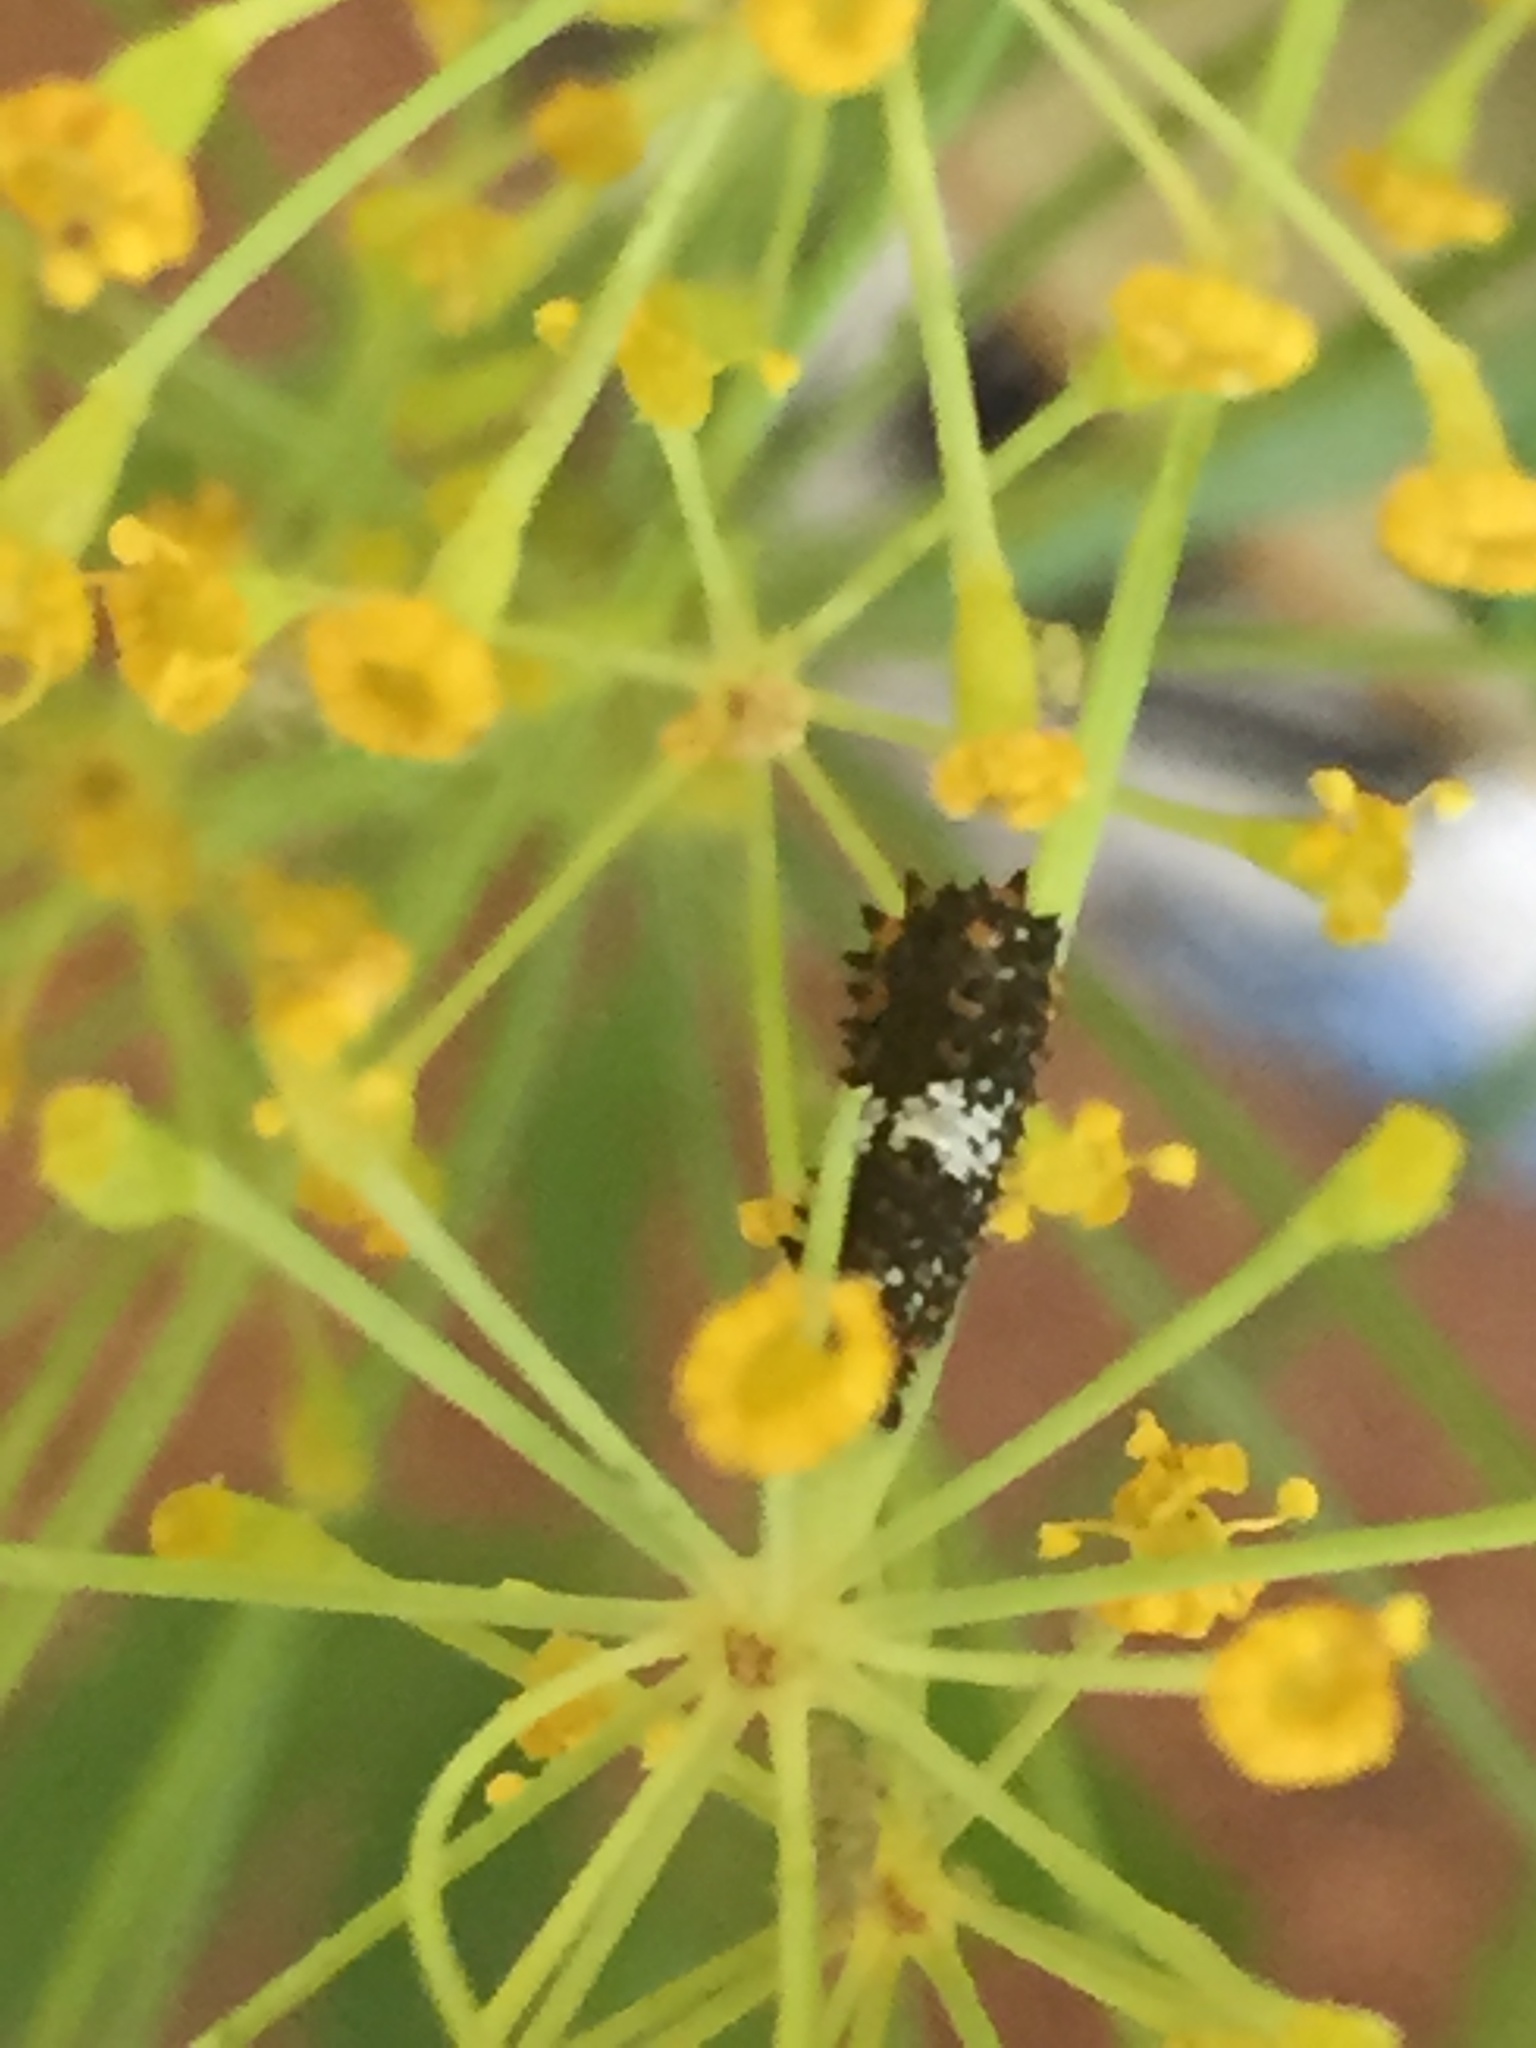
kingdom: Animalia
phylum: Arthropoda
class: Insecta
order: Lepidoptera
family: Papilionidae
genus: Papilio
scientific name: Papilio zelicaon
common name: Anise swallowtail
